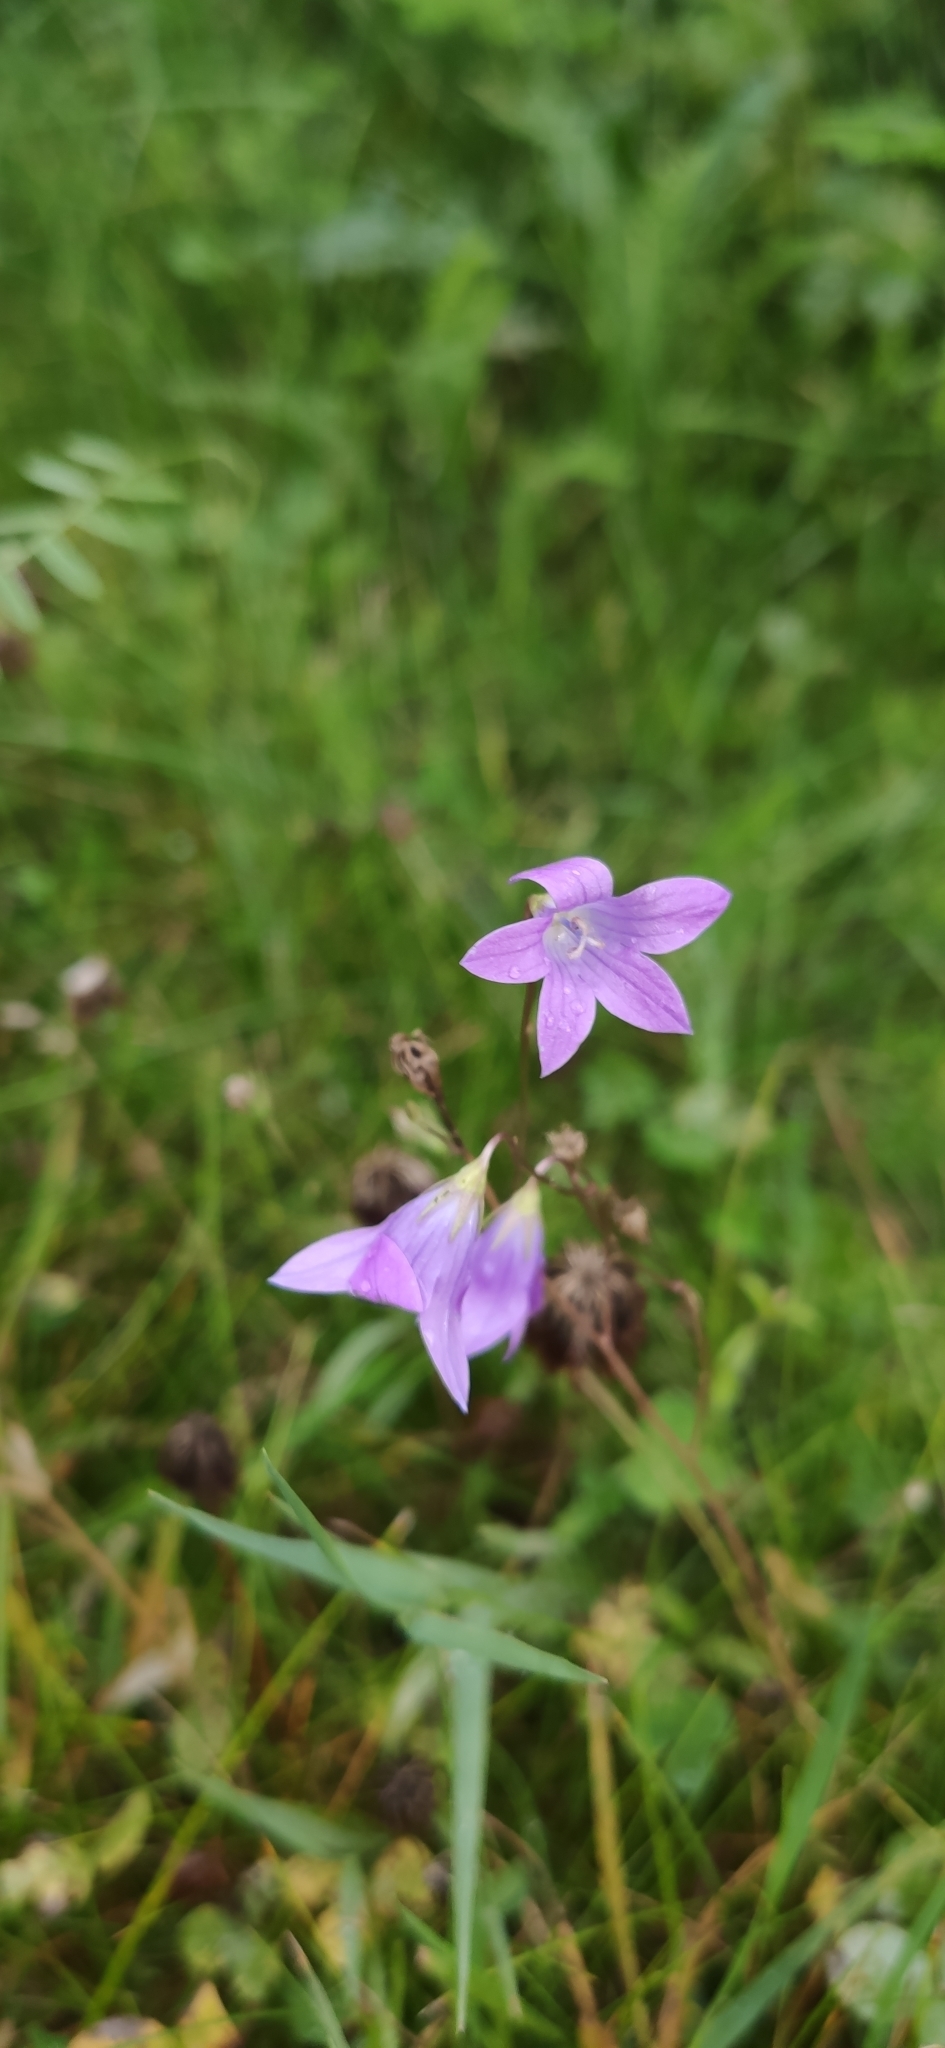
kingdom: Plantae
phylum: Tracheophyta
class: Magnoliopsida
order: Asterales
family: Campanulaceae
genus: Campanula
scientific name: Campanula patula
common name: Spreading bellflower
